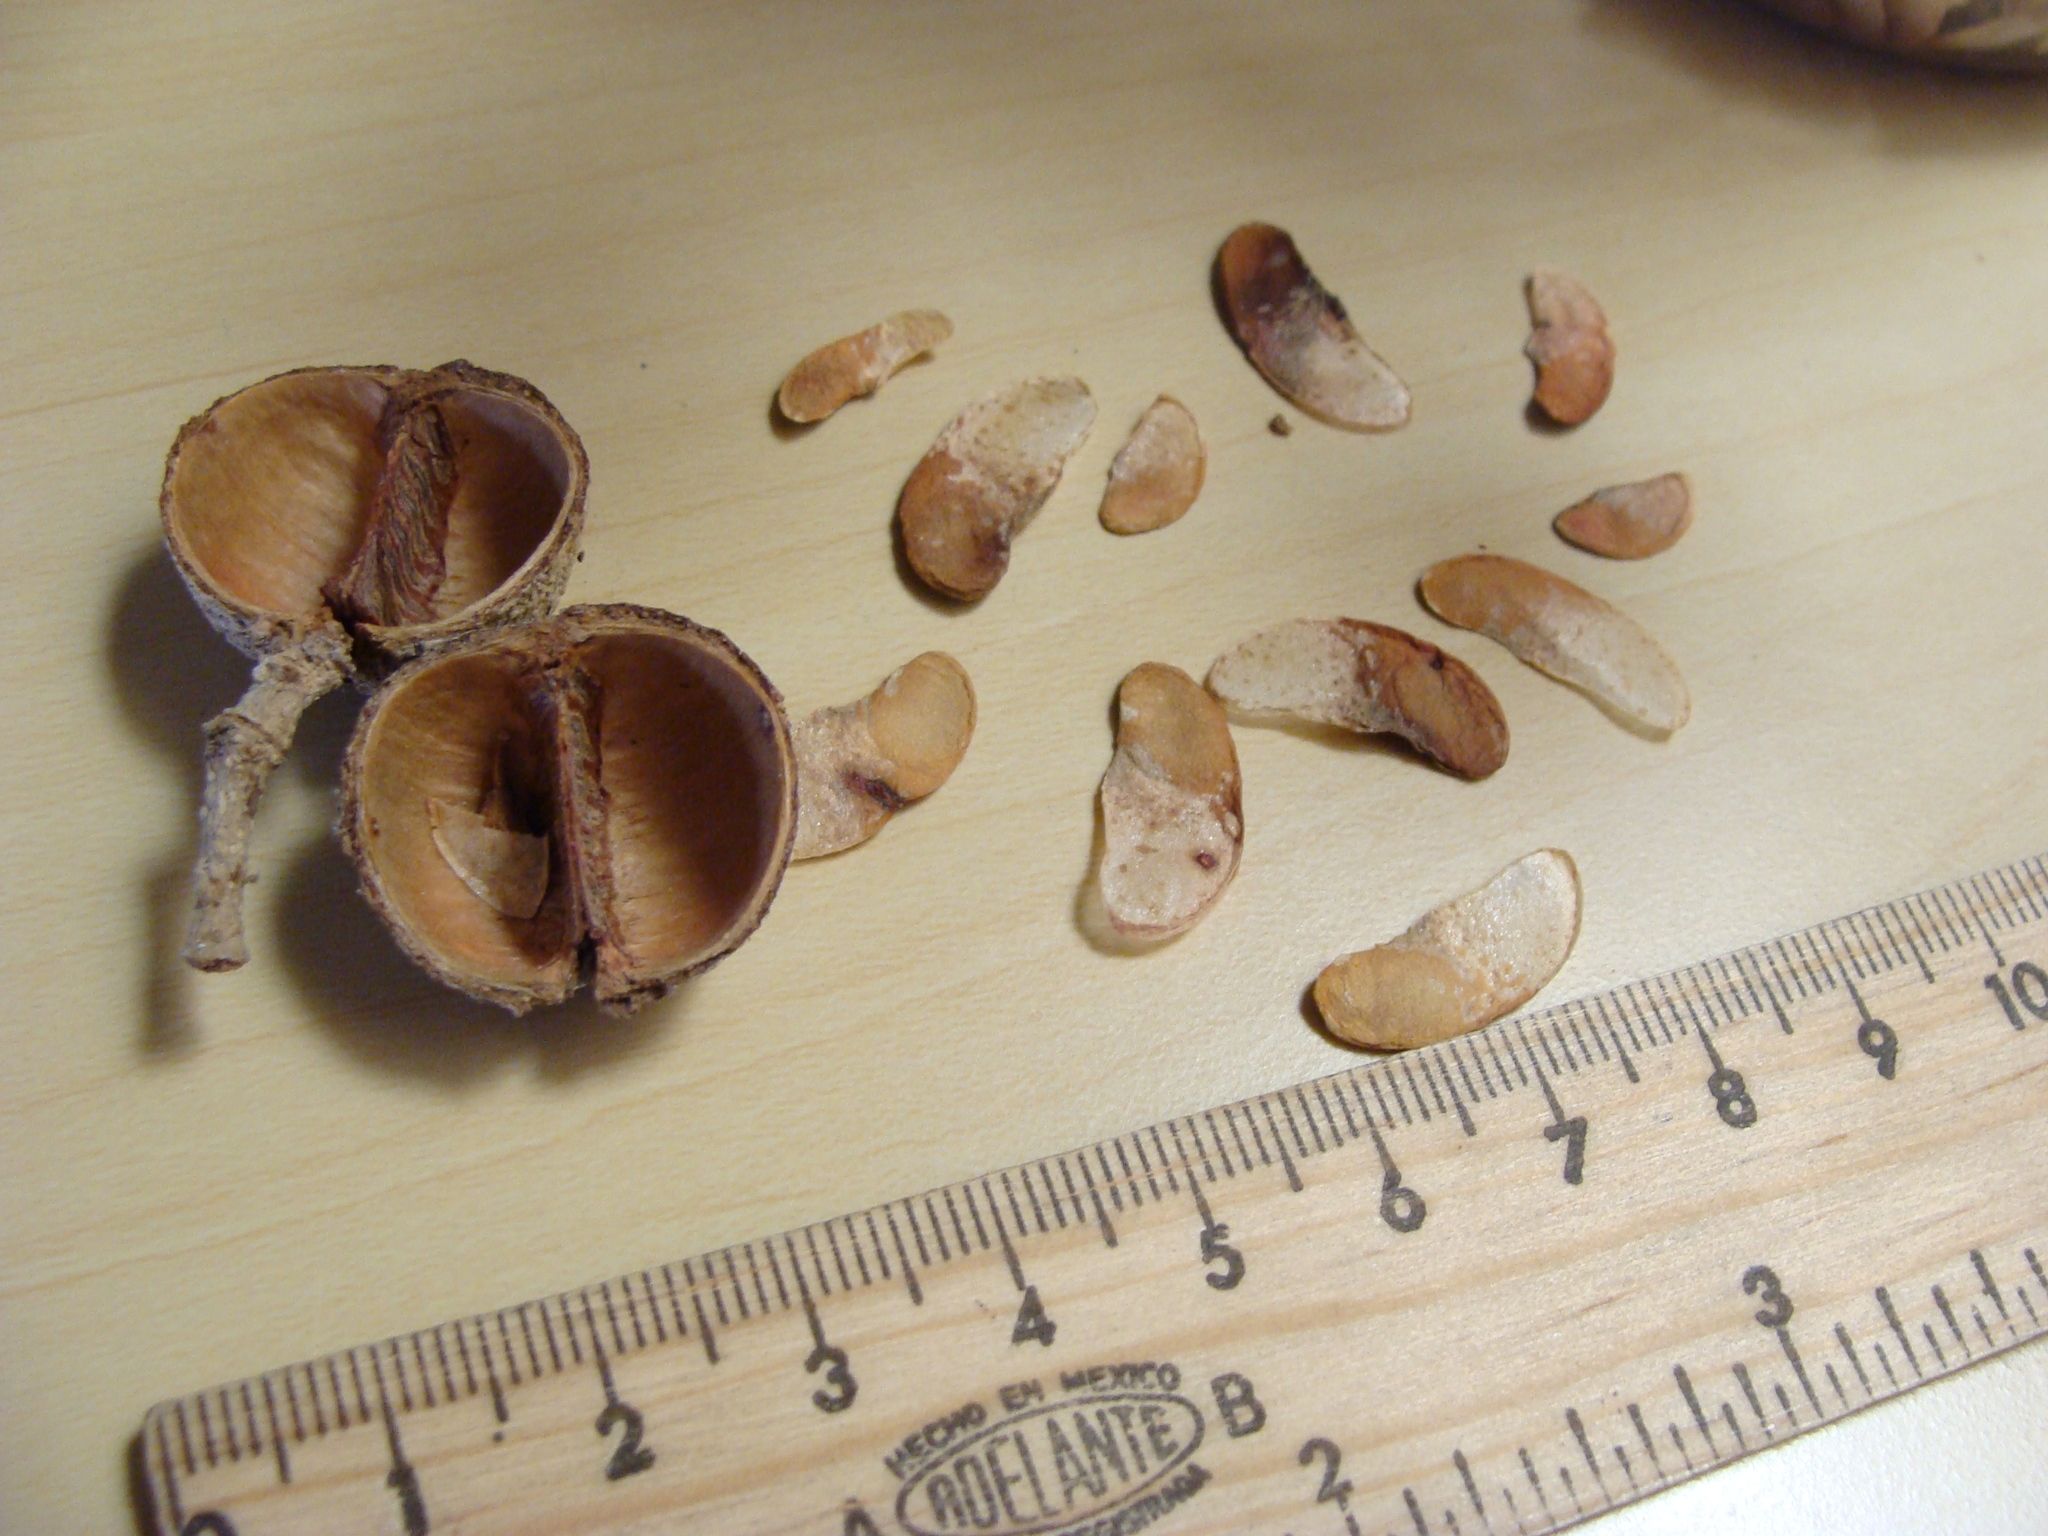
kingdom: Plantae
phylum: Tracheophyta
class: Magnoliopsida
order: Gentianales
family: Rubiaceae
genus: Simira
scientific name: Simira salvadorensis
